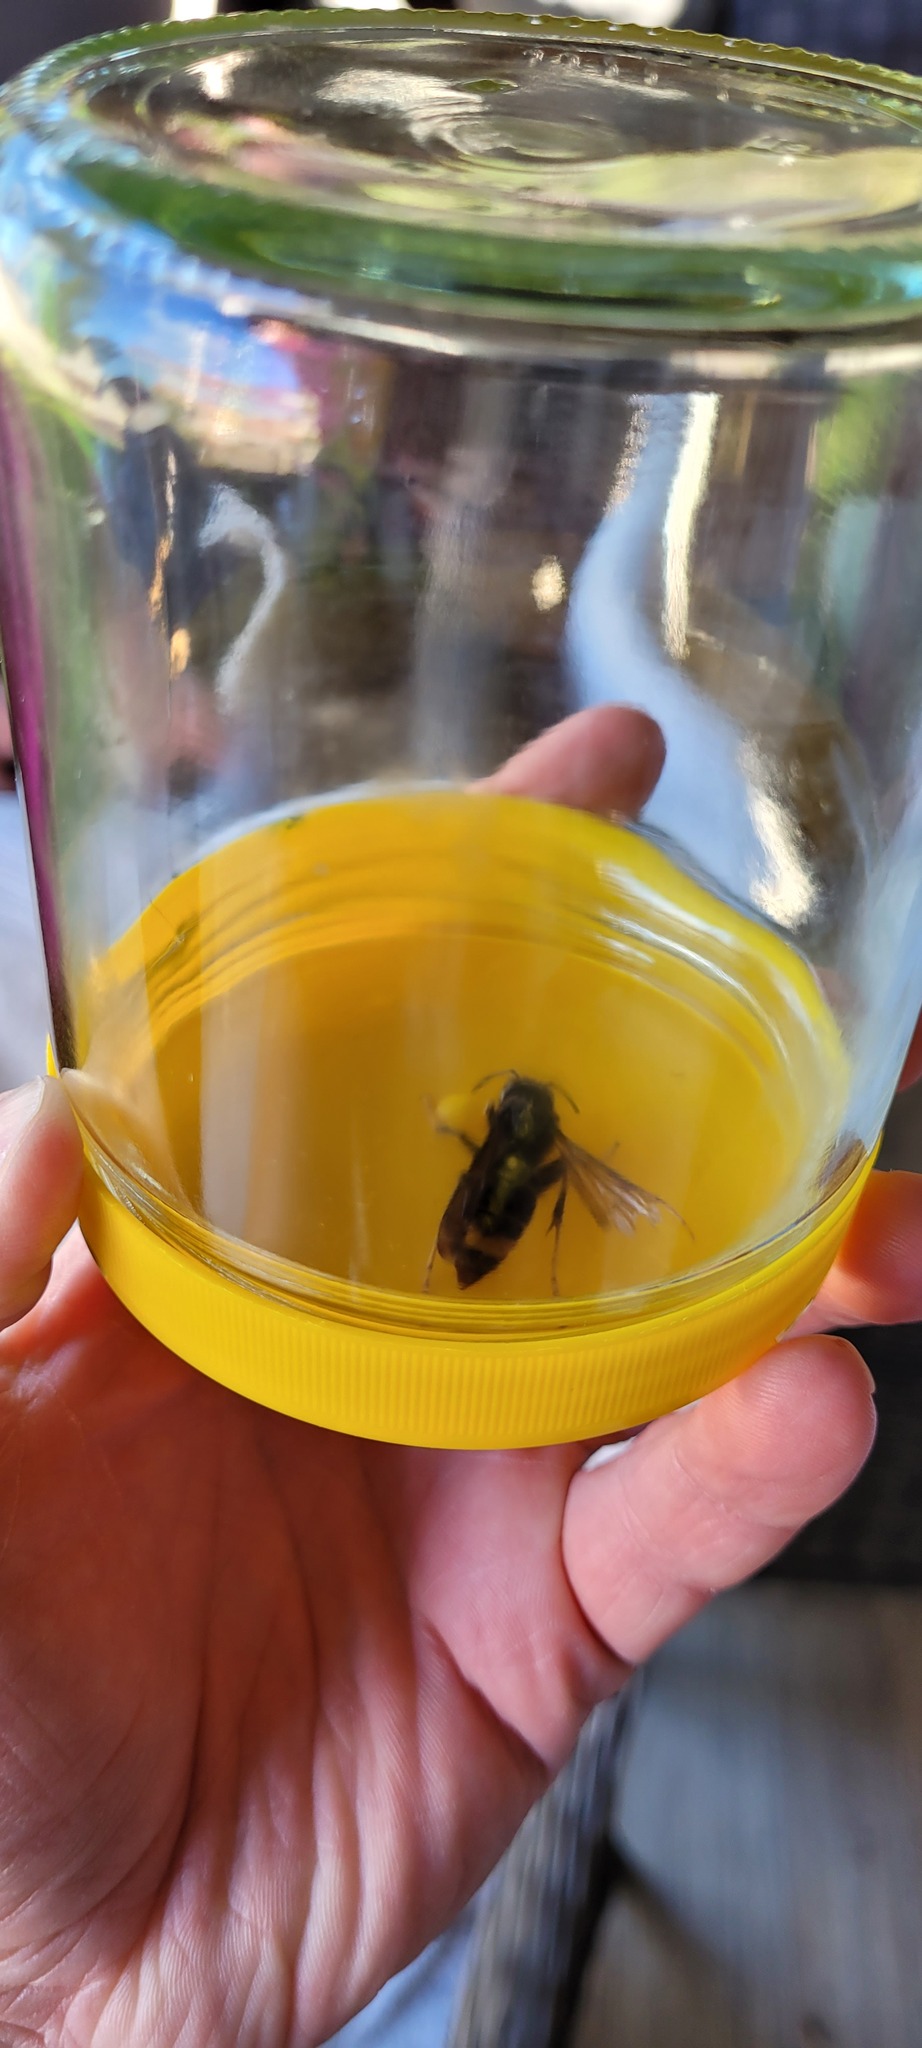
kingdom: Animalia
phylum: Arthropoda
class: Insecta
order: Hymenoptera
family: Vespidae
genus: Vespa
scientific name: Vespa velutina
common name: Asian hornet
